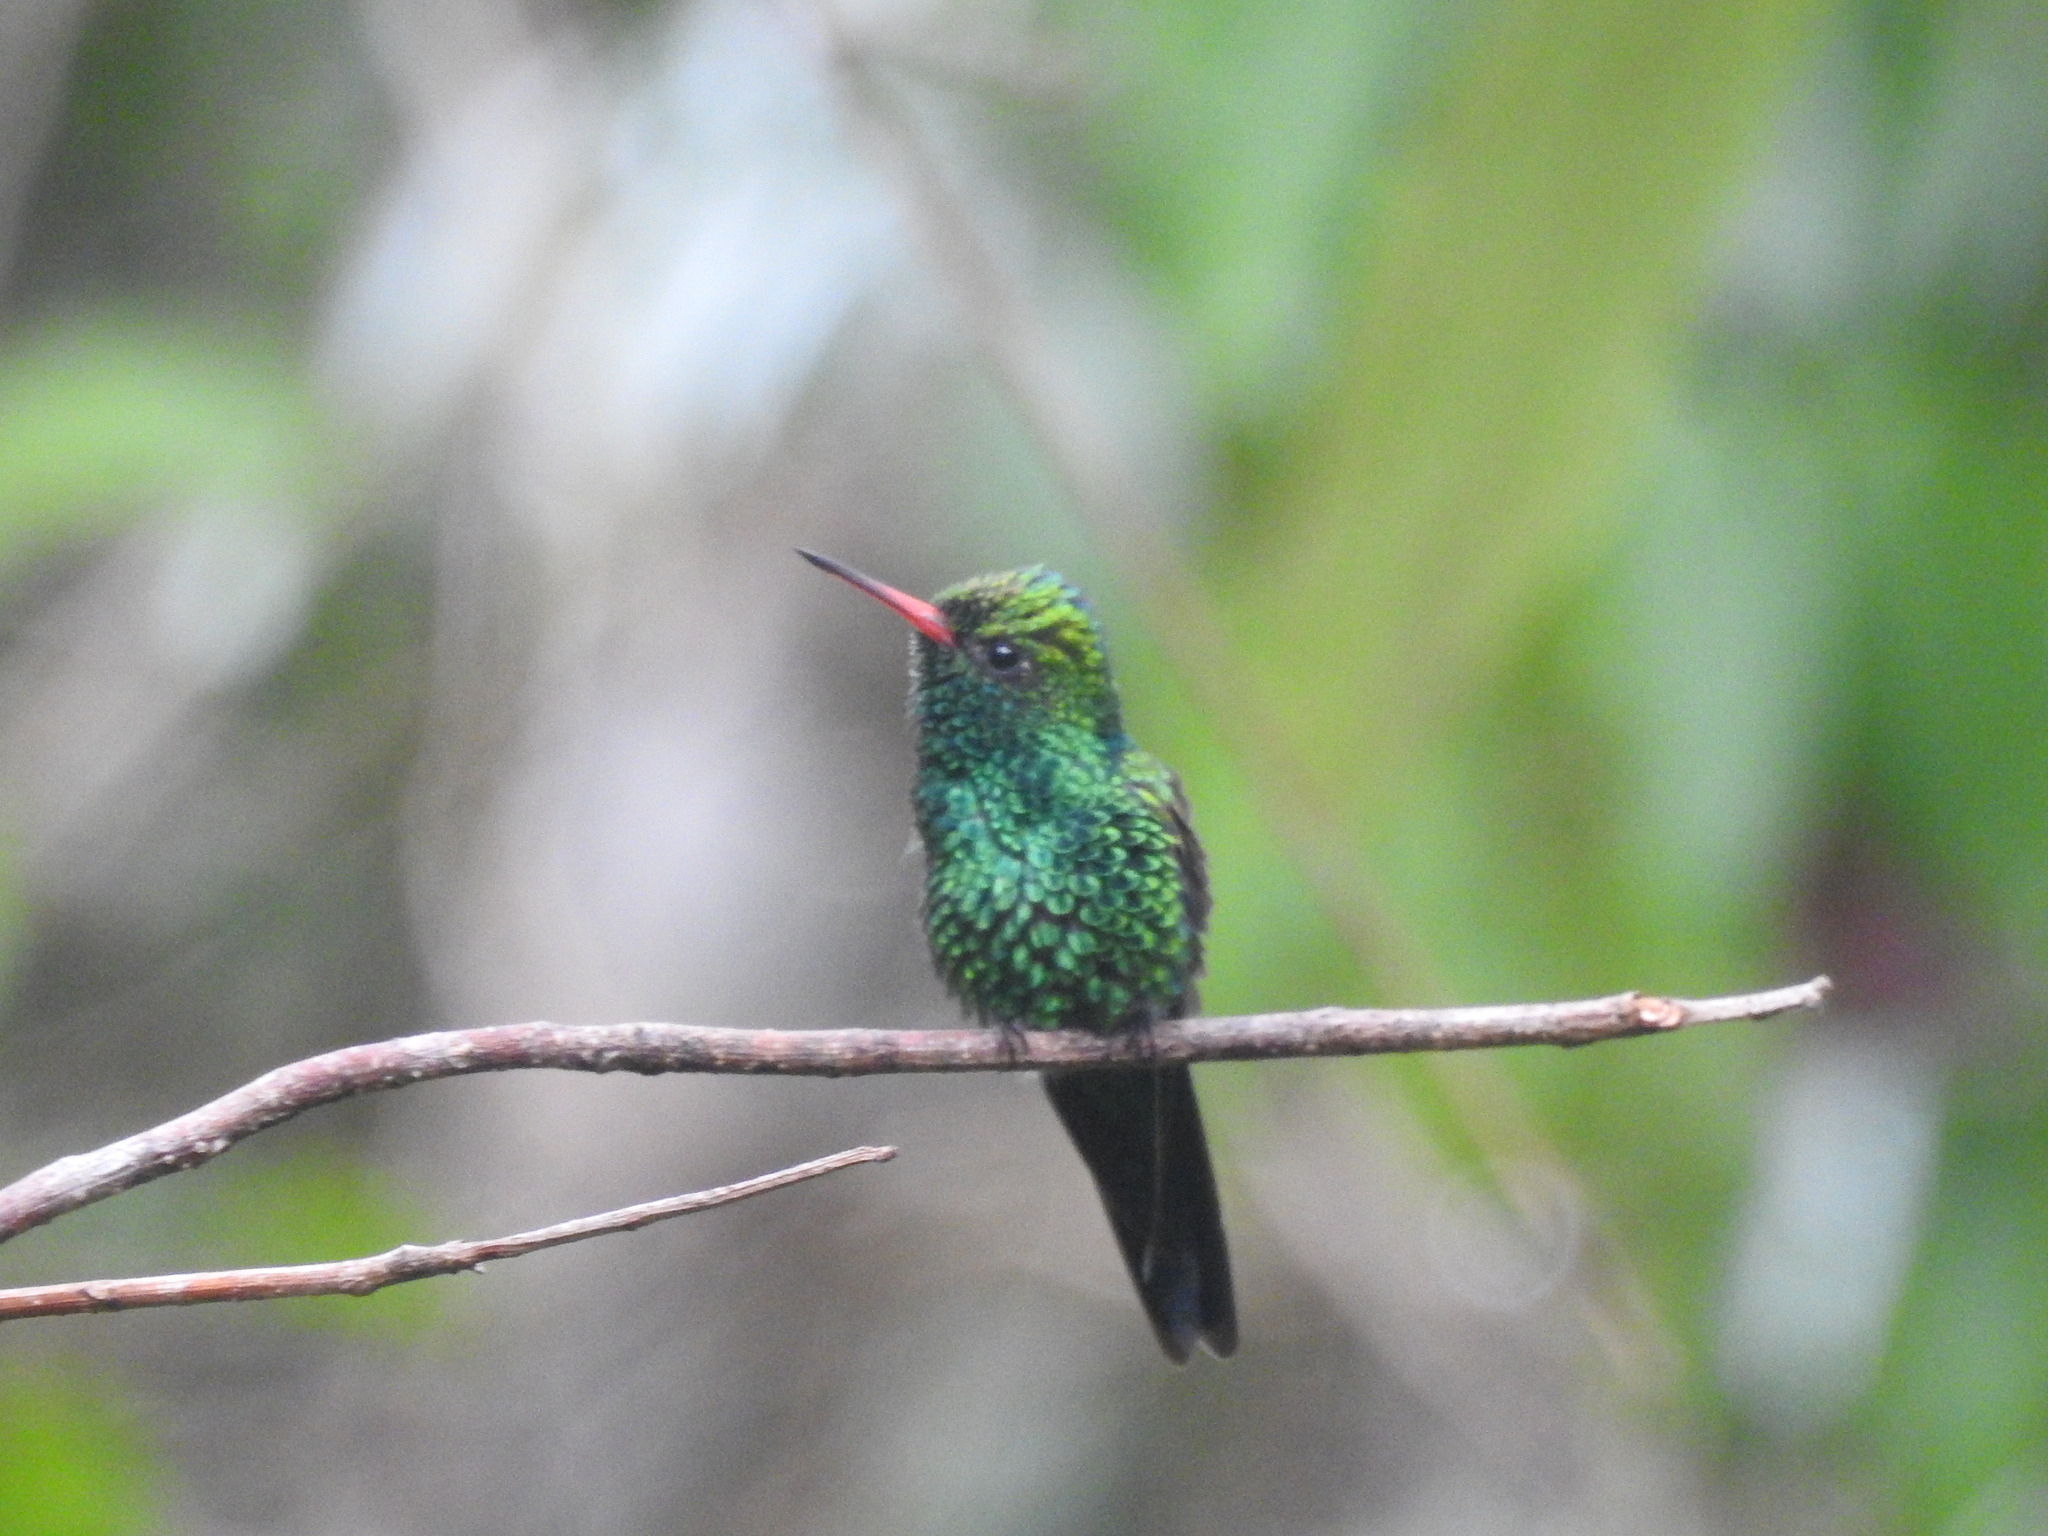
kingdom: Animalia
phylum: Chordata
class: Aves
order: Apodiformes
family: Trochilidae
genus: Cynanthus
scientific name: Cynanthus canivetii
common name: Canivet's emerald
